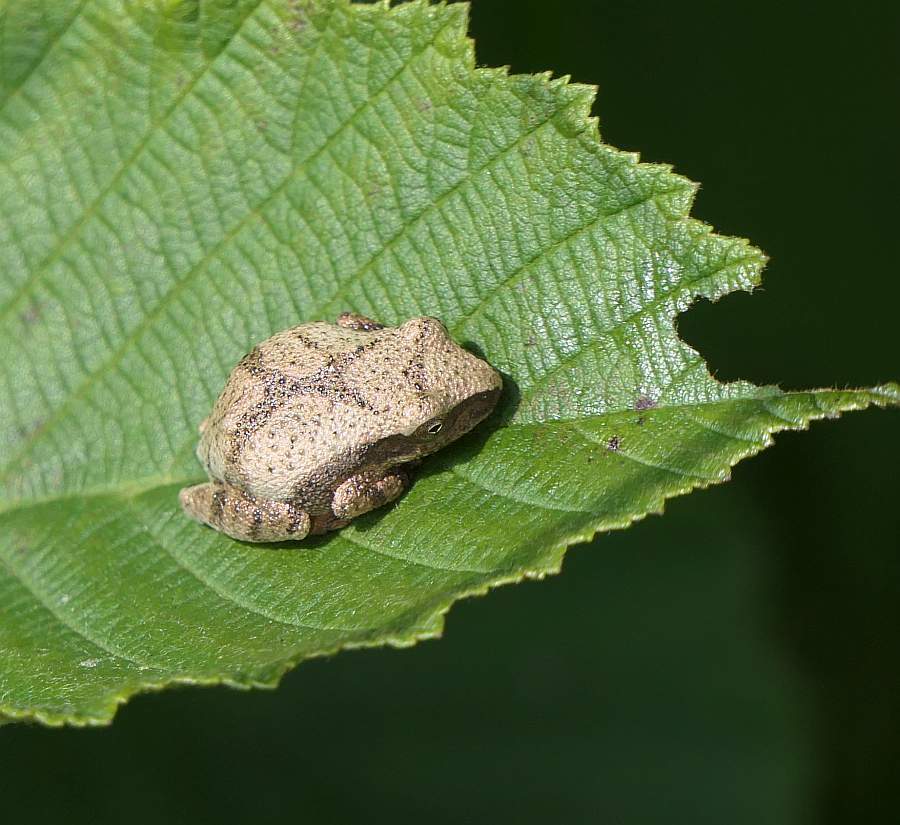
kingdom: Animalia
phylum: Chordata
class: Amphibia
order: Anura
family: Hylidae
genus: Pseudacris
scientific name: Pseudacris crucifer
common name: Spring peeper
